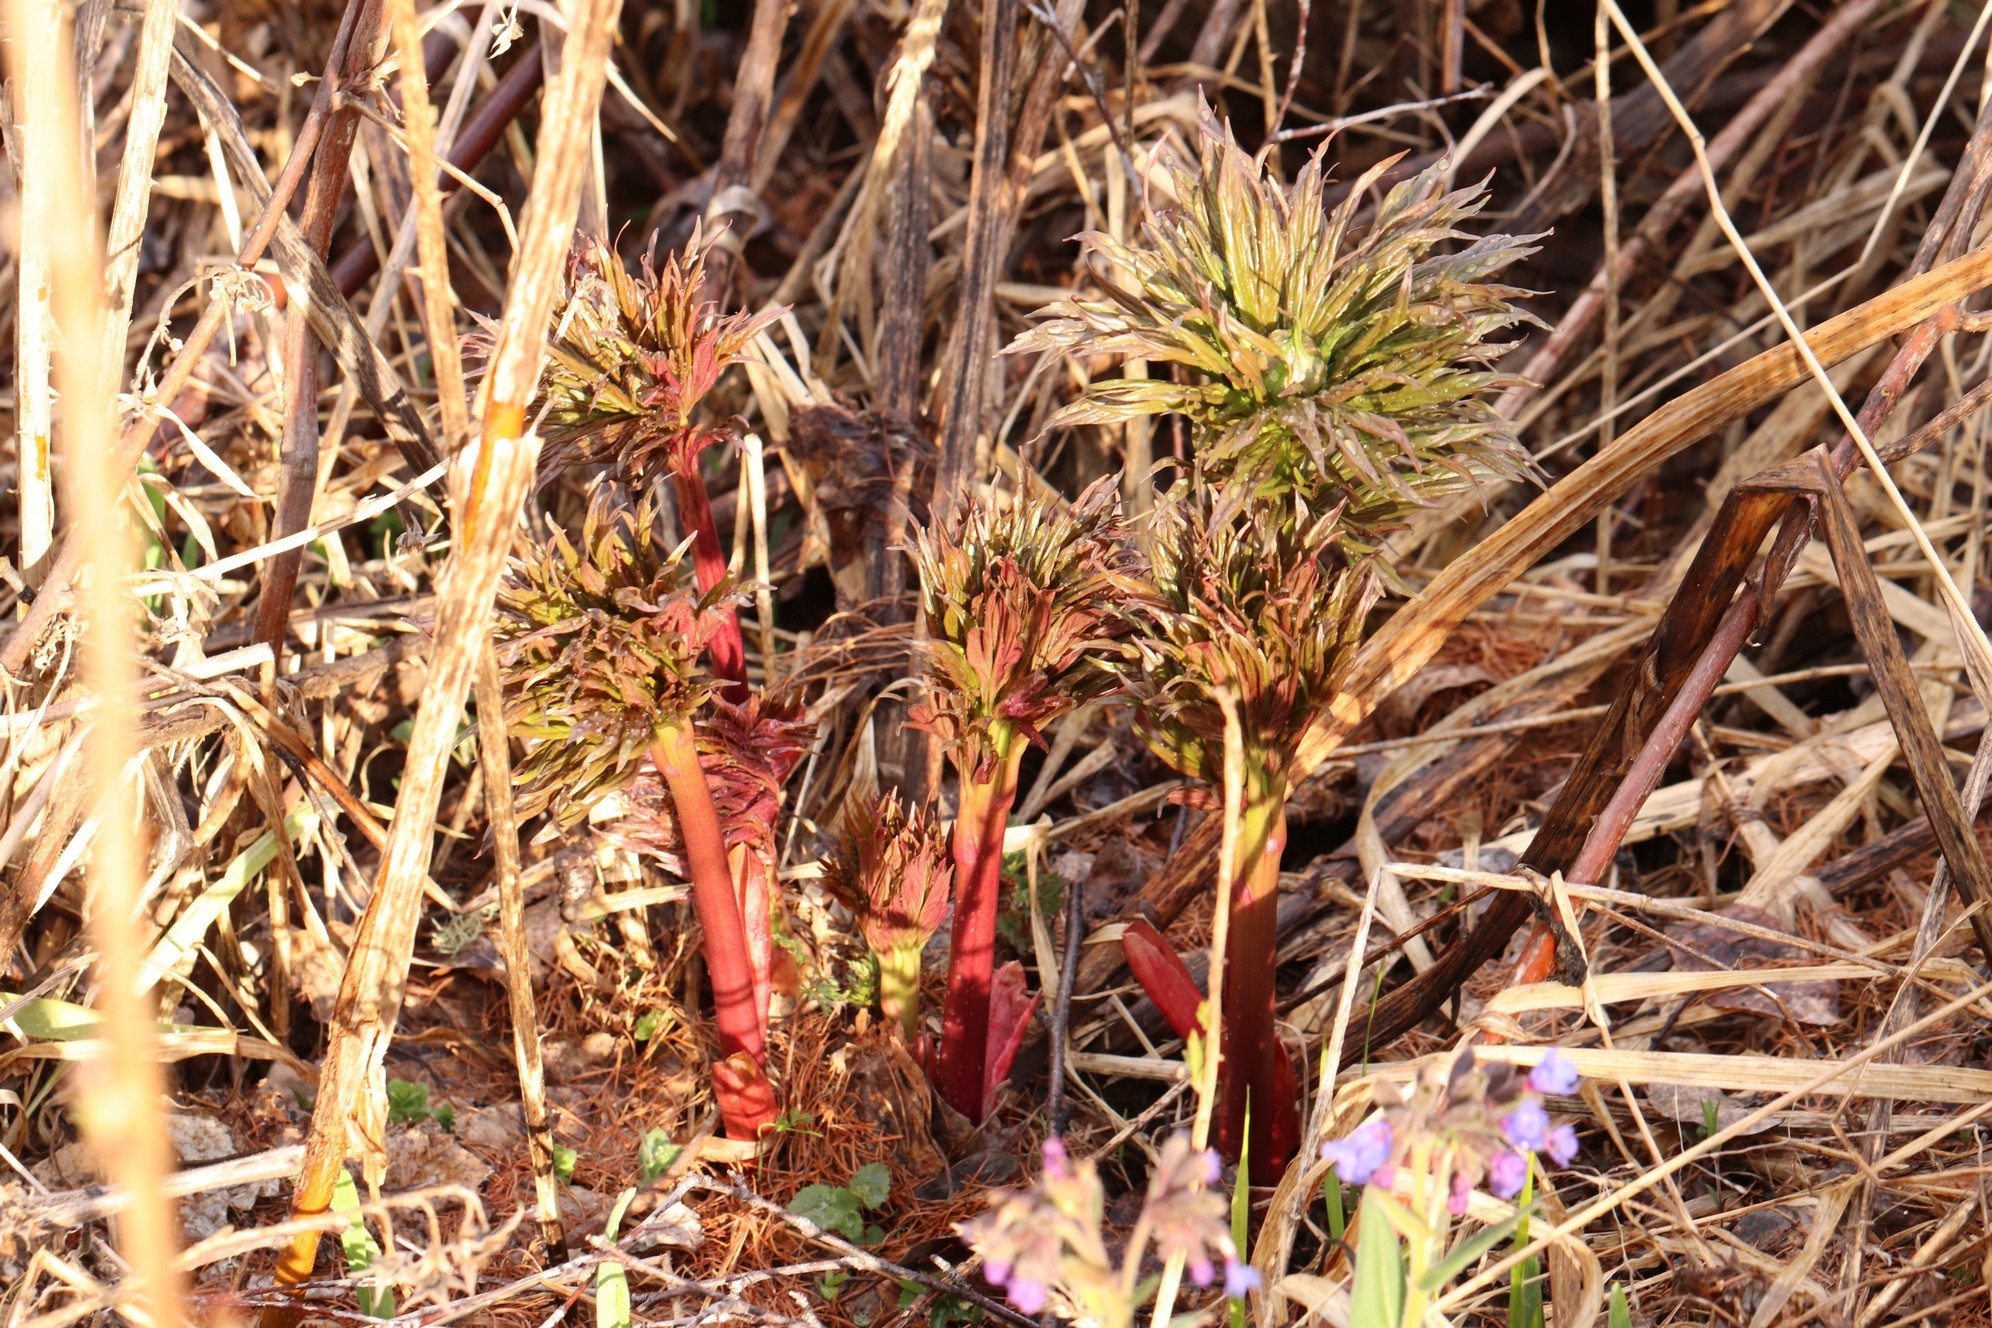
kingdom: Plantae
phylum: Tracheophyta
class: Magnoliopsida
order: Saxifragales
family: Paeoniaceae
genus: Paeonia
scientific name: Paeonia anomala
